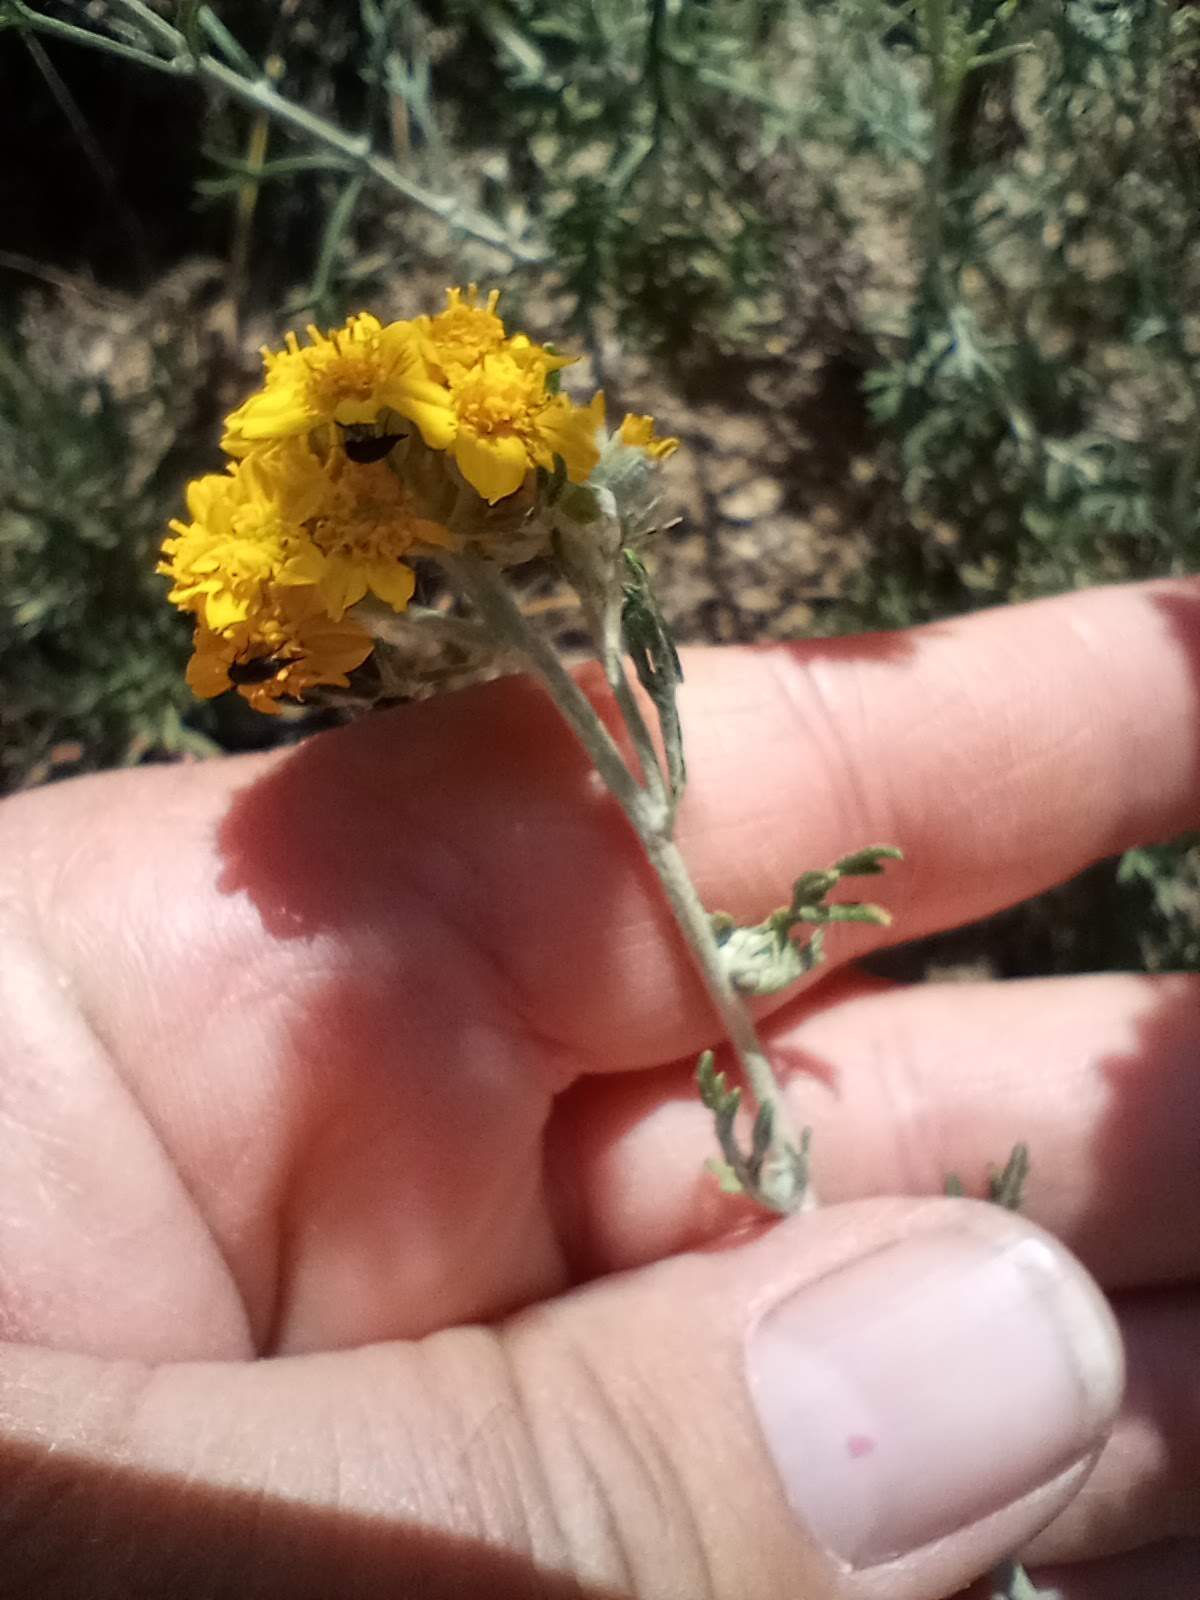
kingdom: Plantae
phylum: Tracheophyta
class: Magnoliopsida
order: Asterales
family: Asteraceae
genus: Eriophyllum
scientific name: Eriophyllum confertiflorum
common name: Golden-yarrow
